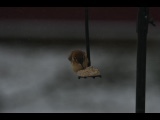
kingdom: Animalia
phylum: Chordata
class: Aves
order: Passeriformes
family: Troglodytidae
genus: Thryothorus
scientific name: Thryothorus ludovicianus
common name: Carolina wren
